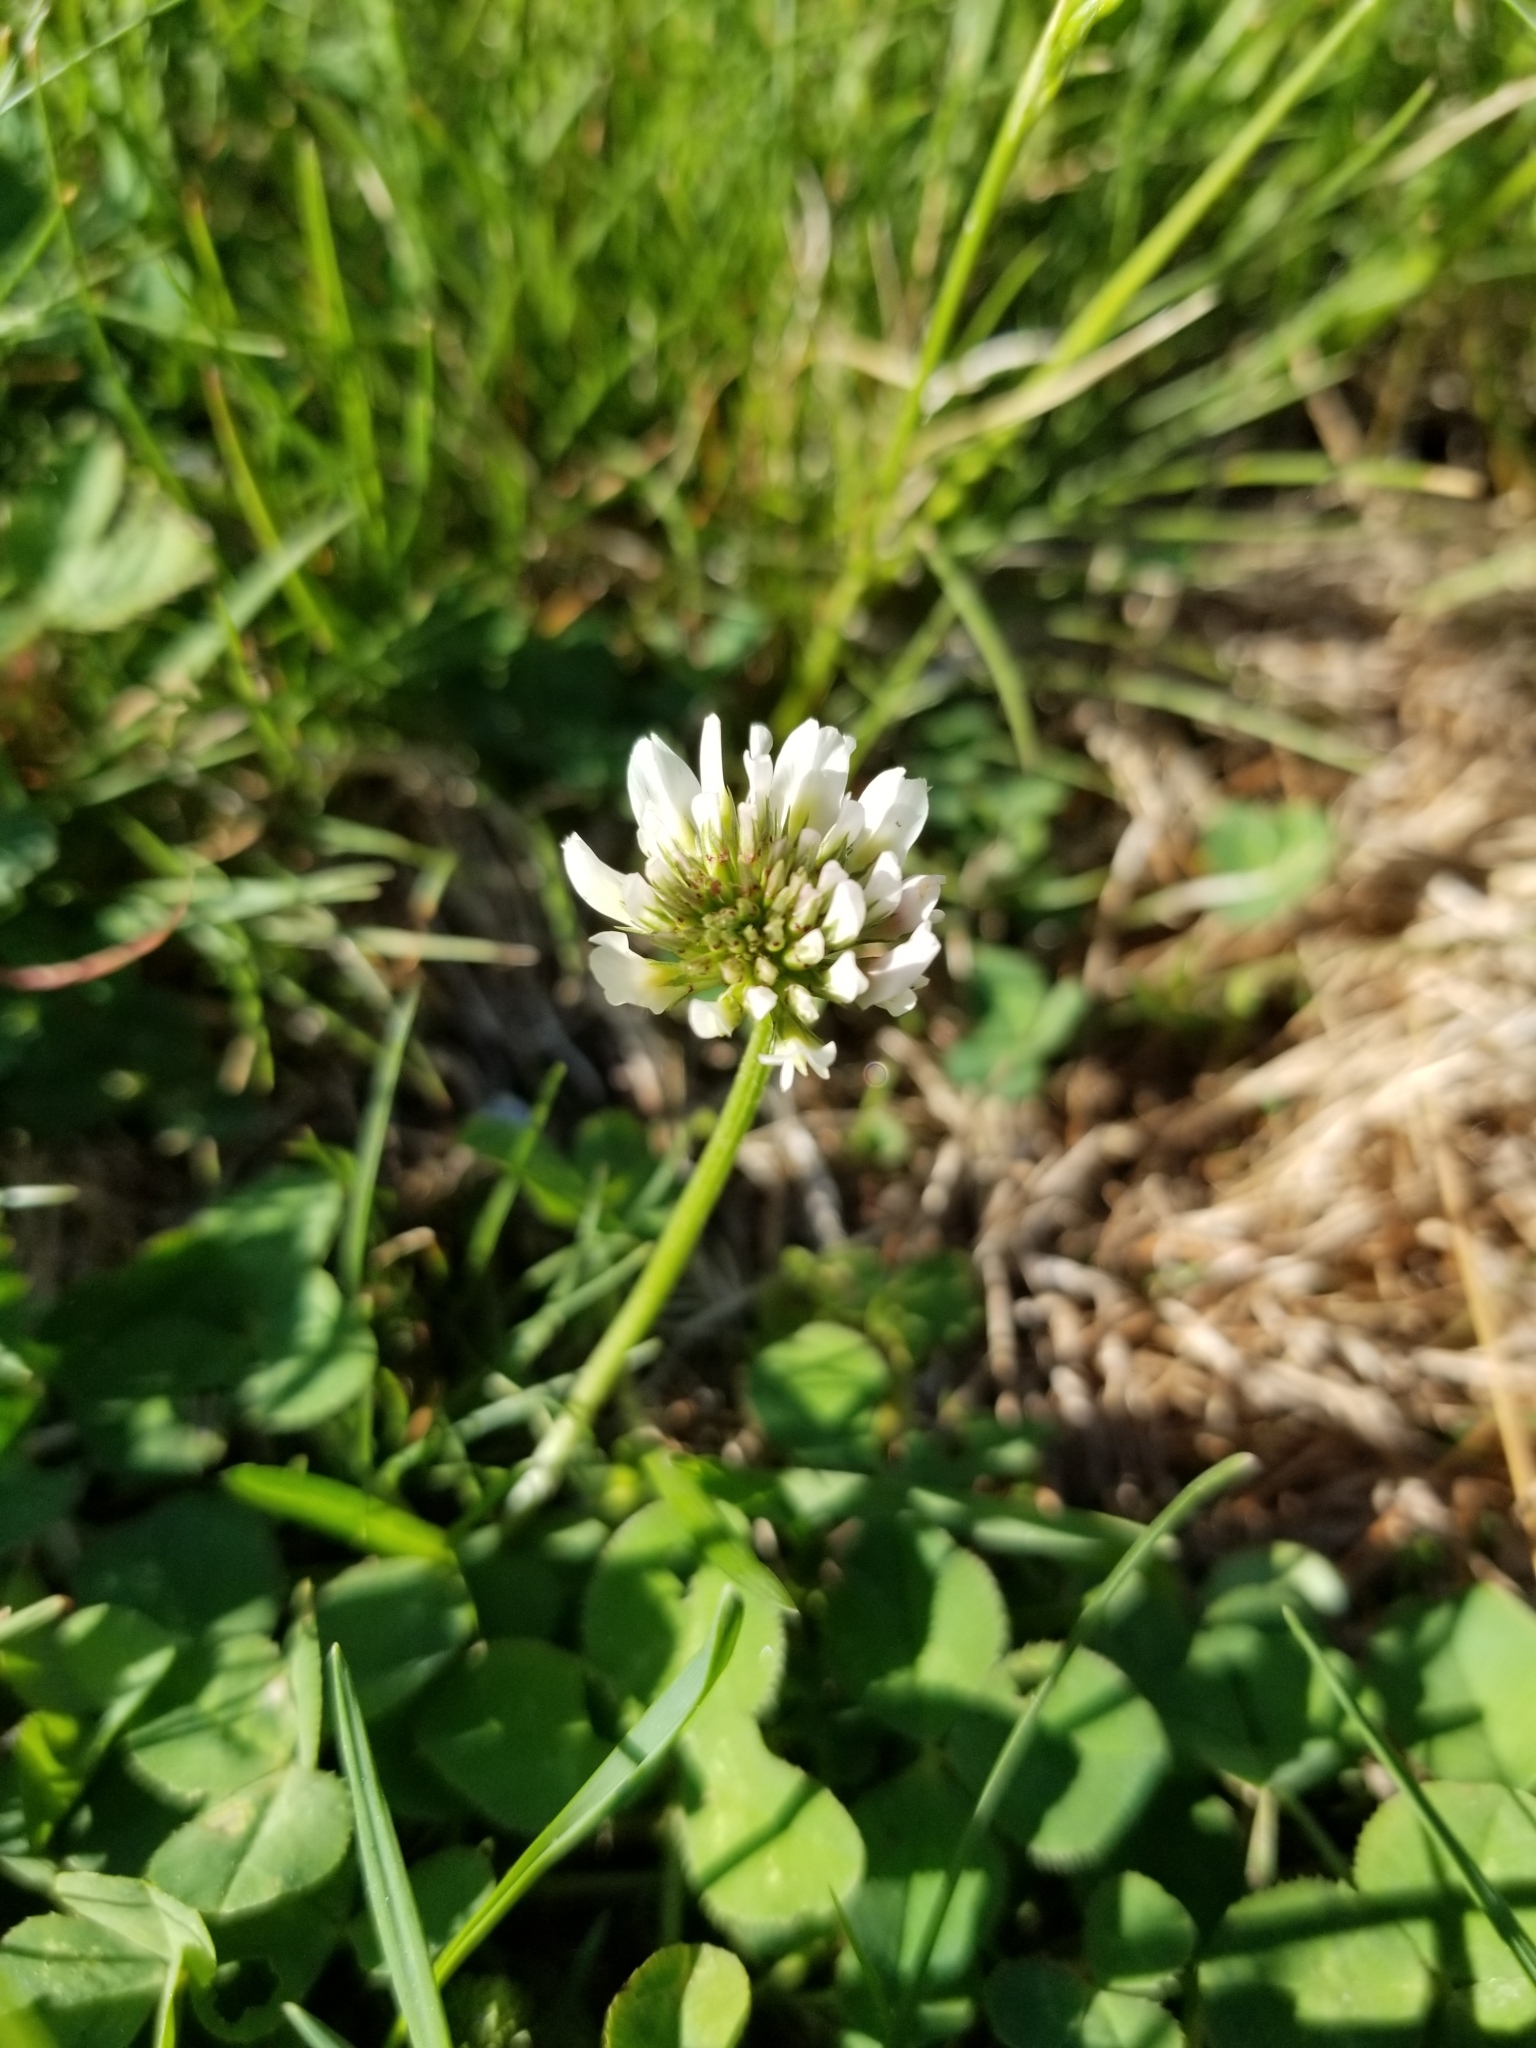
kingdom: Plantae
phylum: Tracheophyta
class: Magnoliopsida
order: Fabales
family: Fabaceae
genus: Trifolium
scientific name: Trifolium repens
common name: White clover
